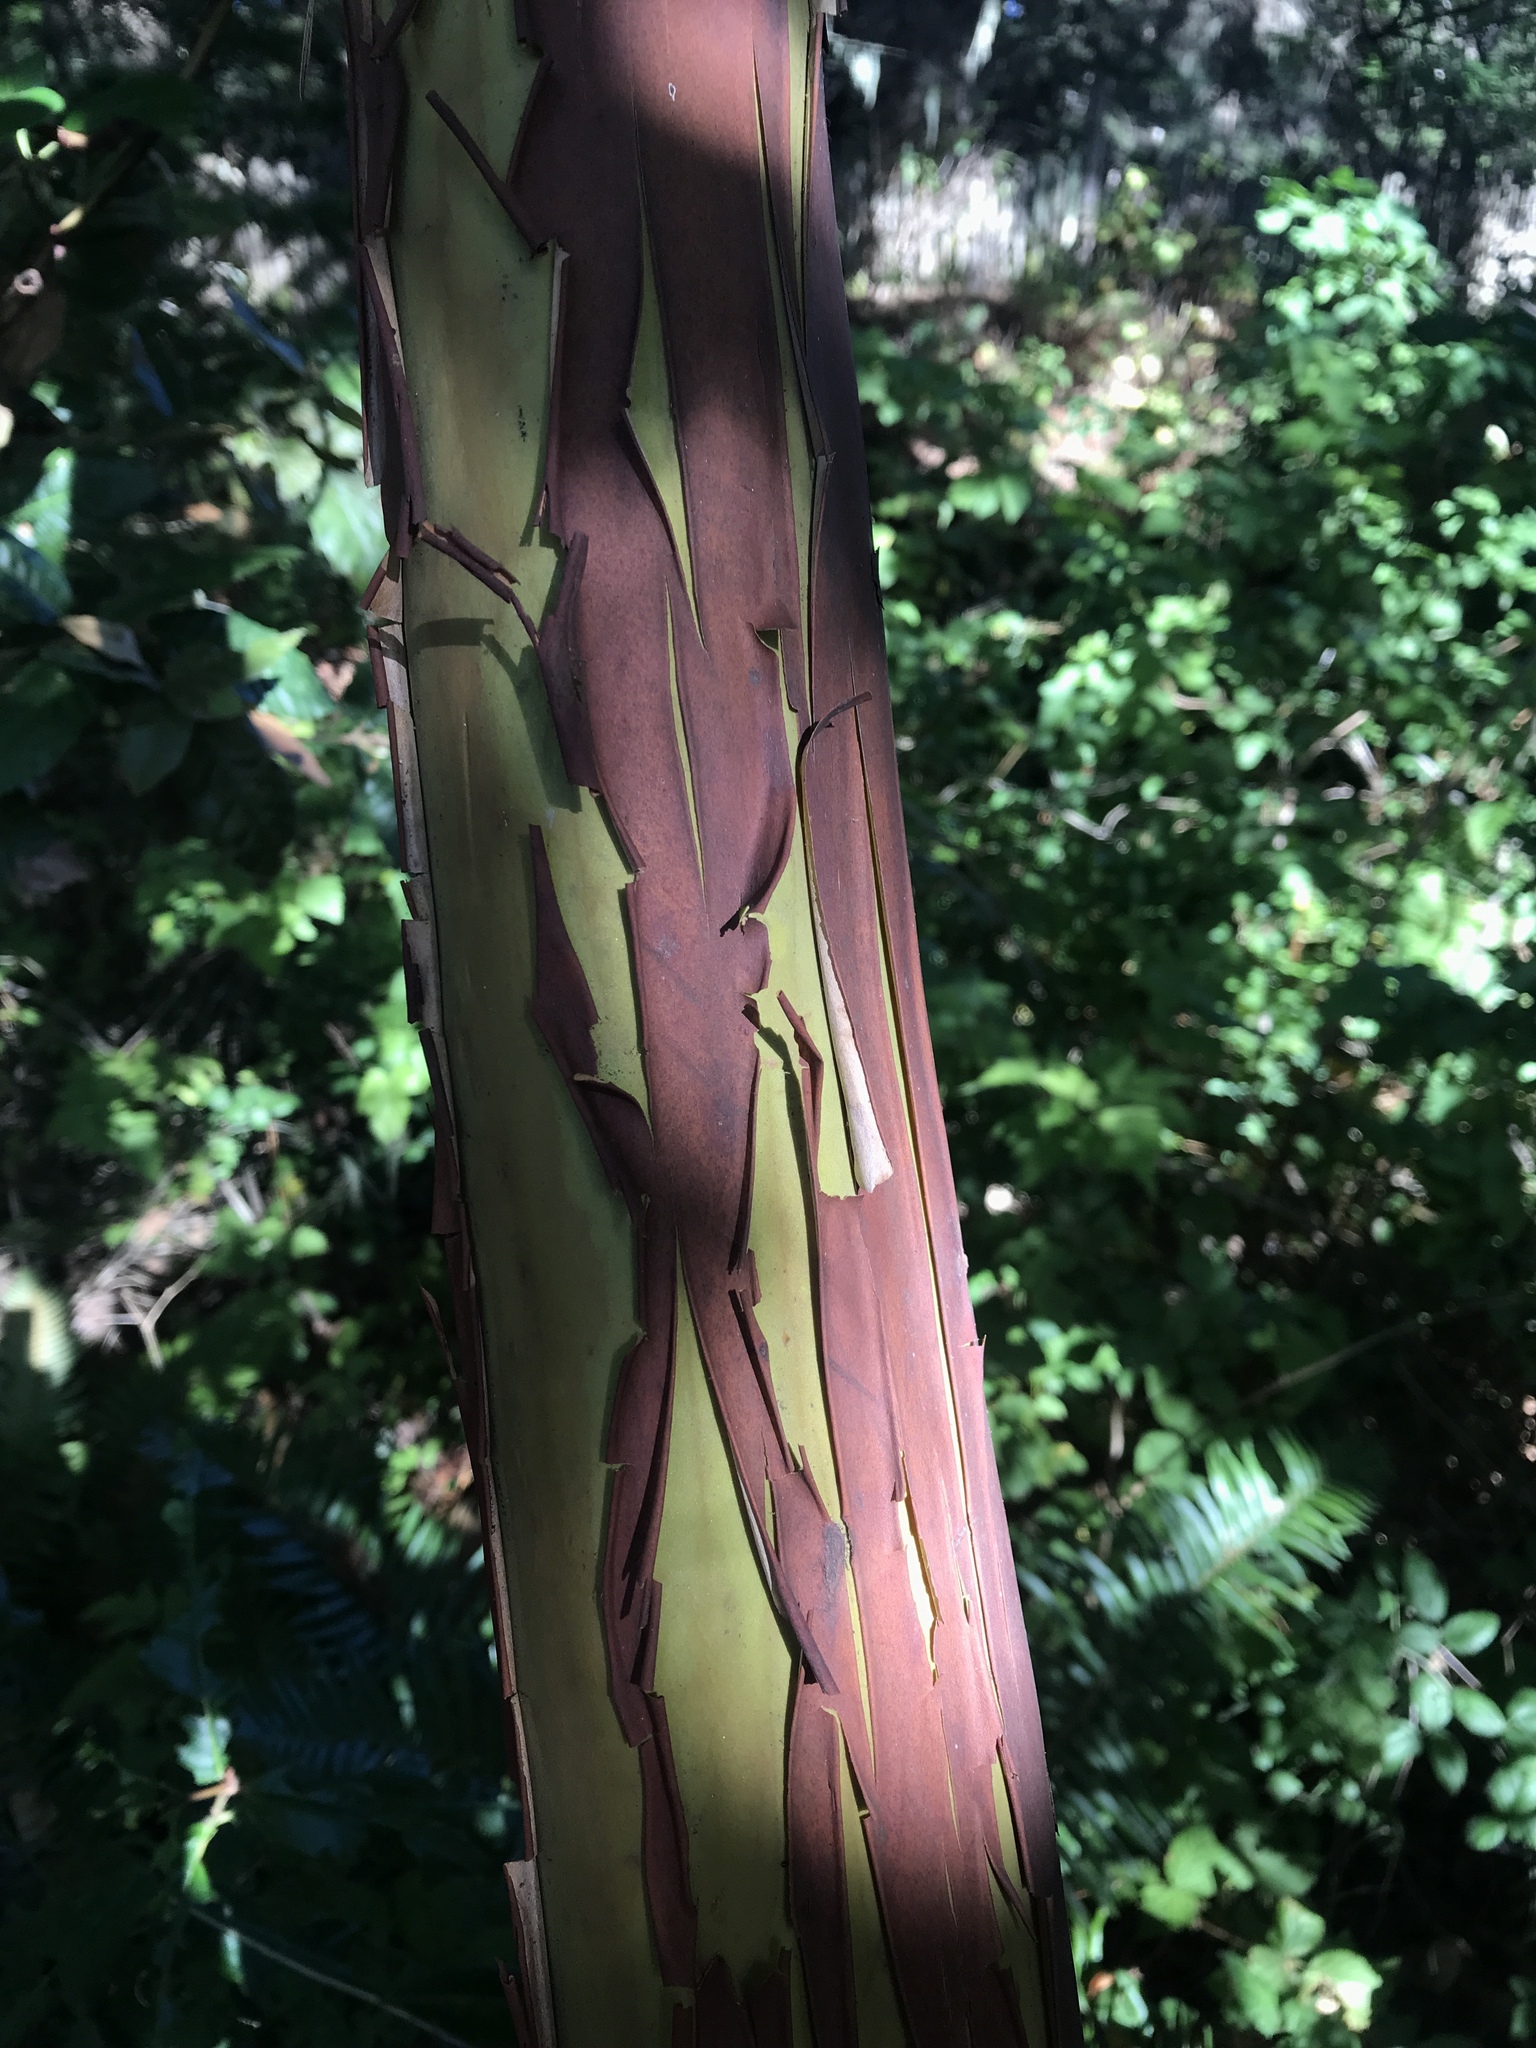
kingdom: Plantae
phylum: Tracheophyta
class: Magnoliopsida
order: Ericales
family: Ericaceae
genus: Arbutus
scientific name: Arbutus menziesii
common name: Pacific madrone
